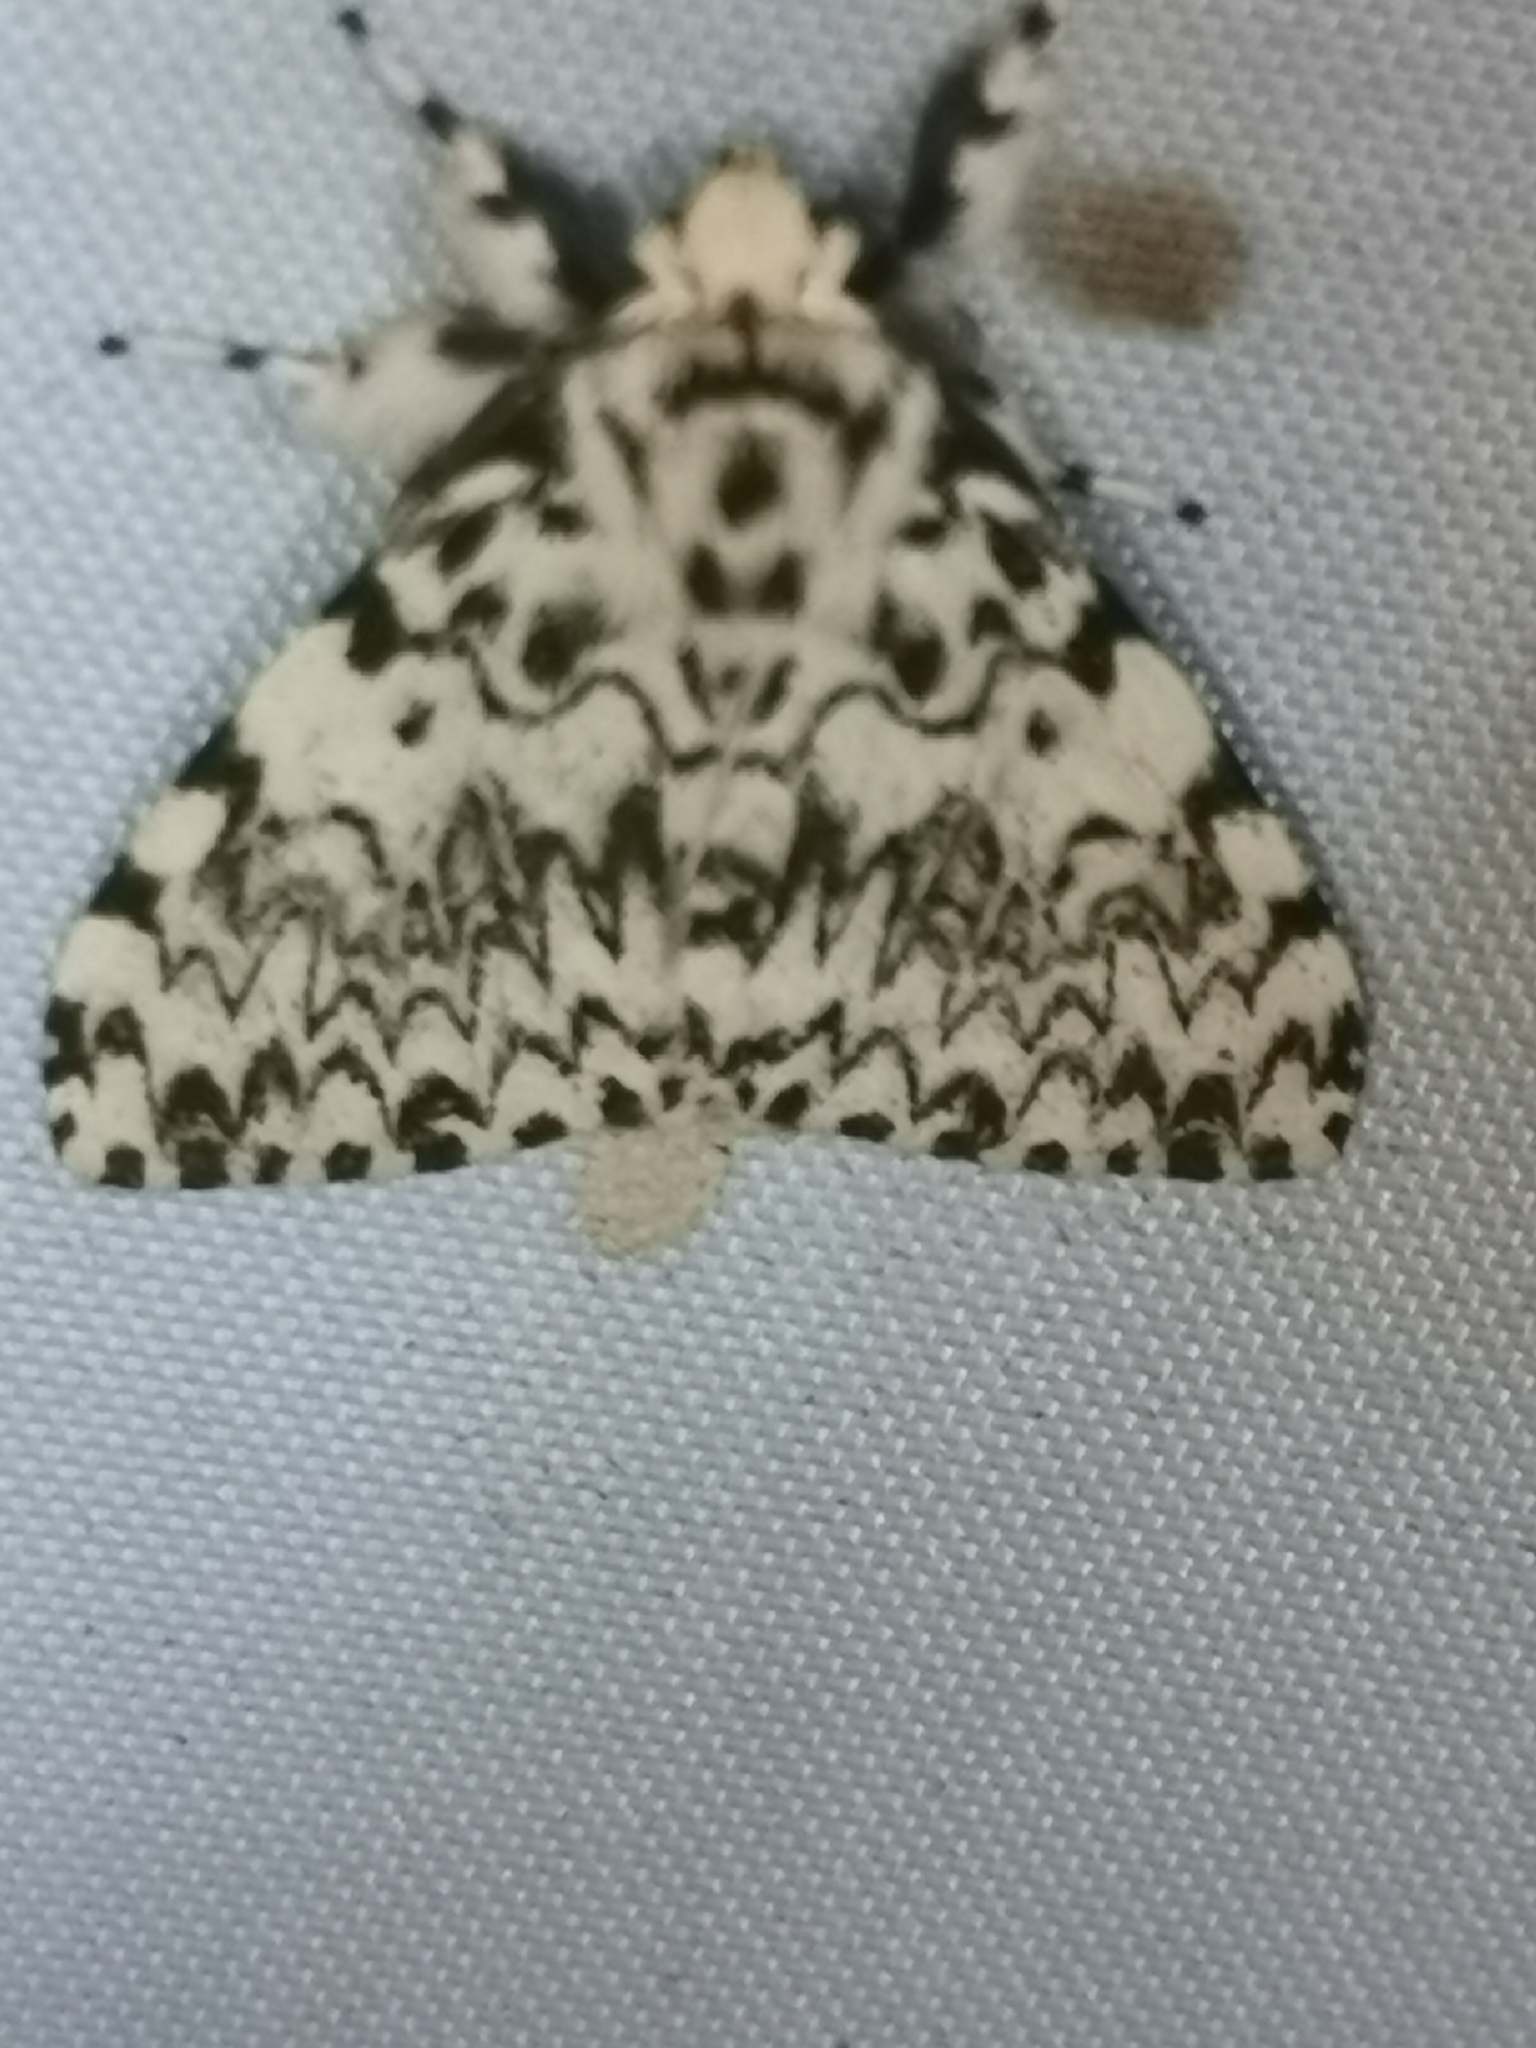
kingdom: Animalia
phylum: Arthropoda
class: Insecta
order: Lepidoptera
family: Erebidae
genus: Lymantria
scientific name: Lymantria monacha
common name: Black arches
